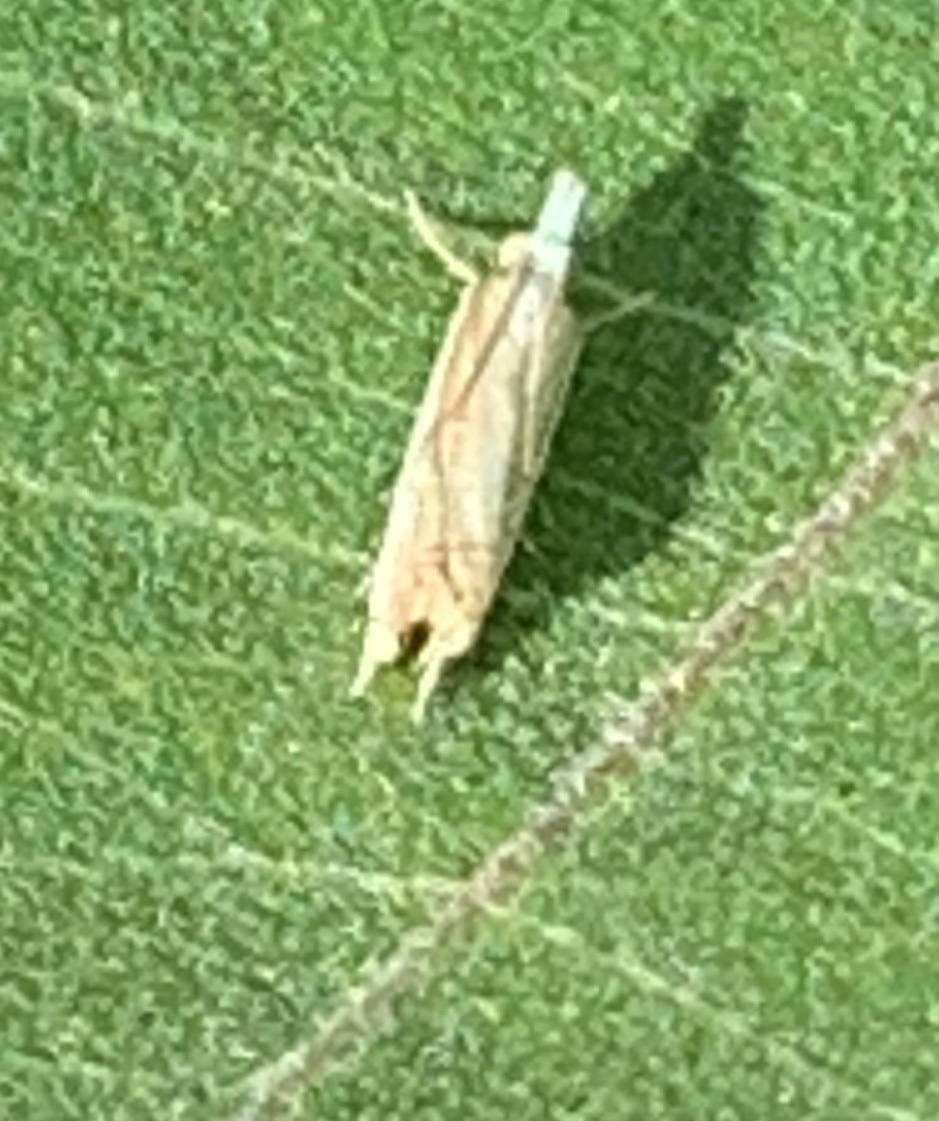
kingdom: Animalia
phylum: Arthropoda
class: Insecta
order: Lepidoptera
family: Crambidae
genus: Crambus
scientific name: Crambus
